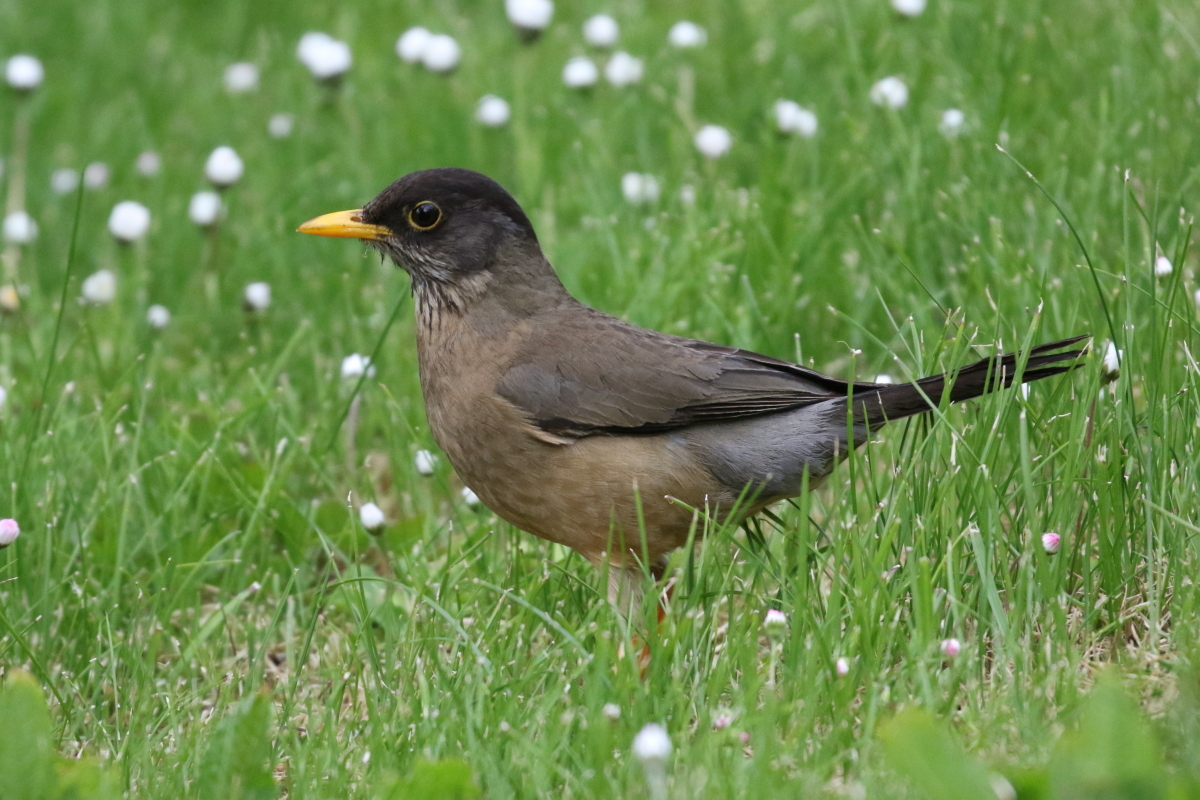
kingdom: Animalia
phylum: Chordata
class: Aves
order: Passeriformes
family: Turdidae
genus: Turdus
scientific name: Turdus falcklandii
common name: Austral thrush
